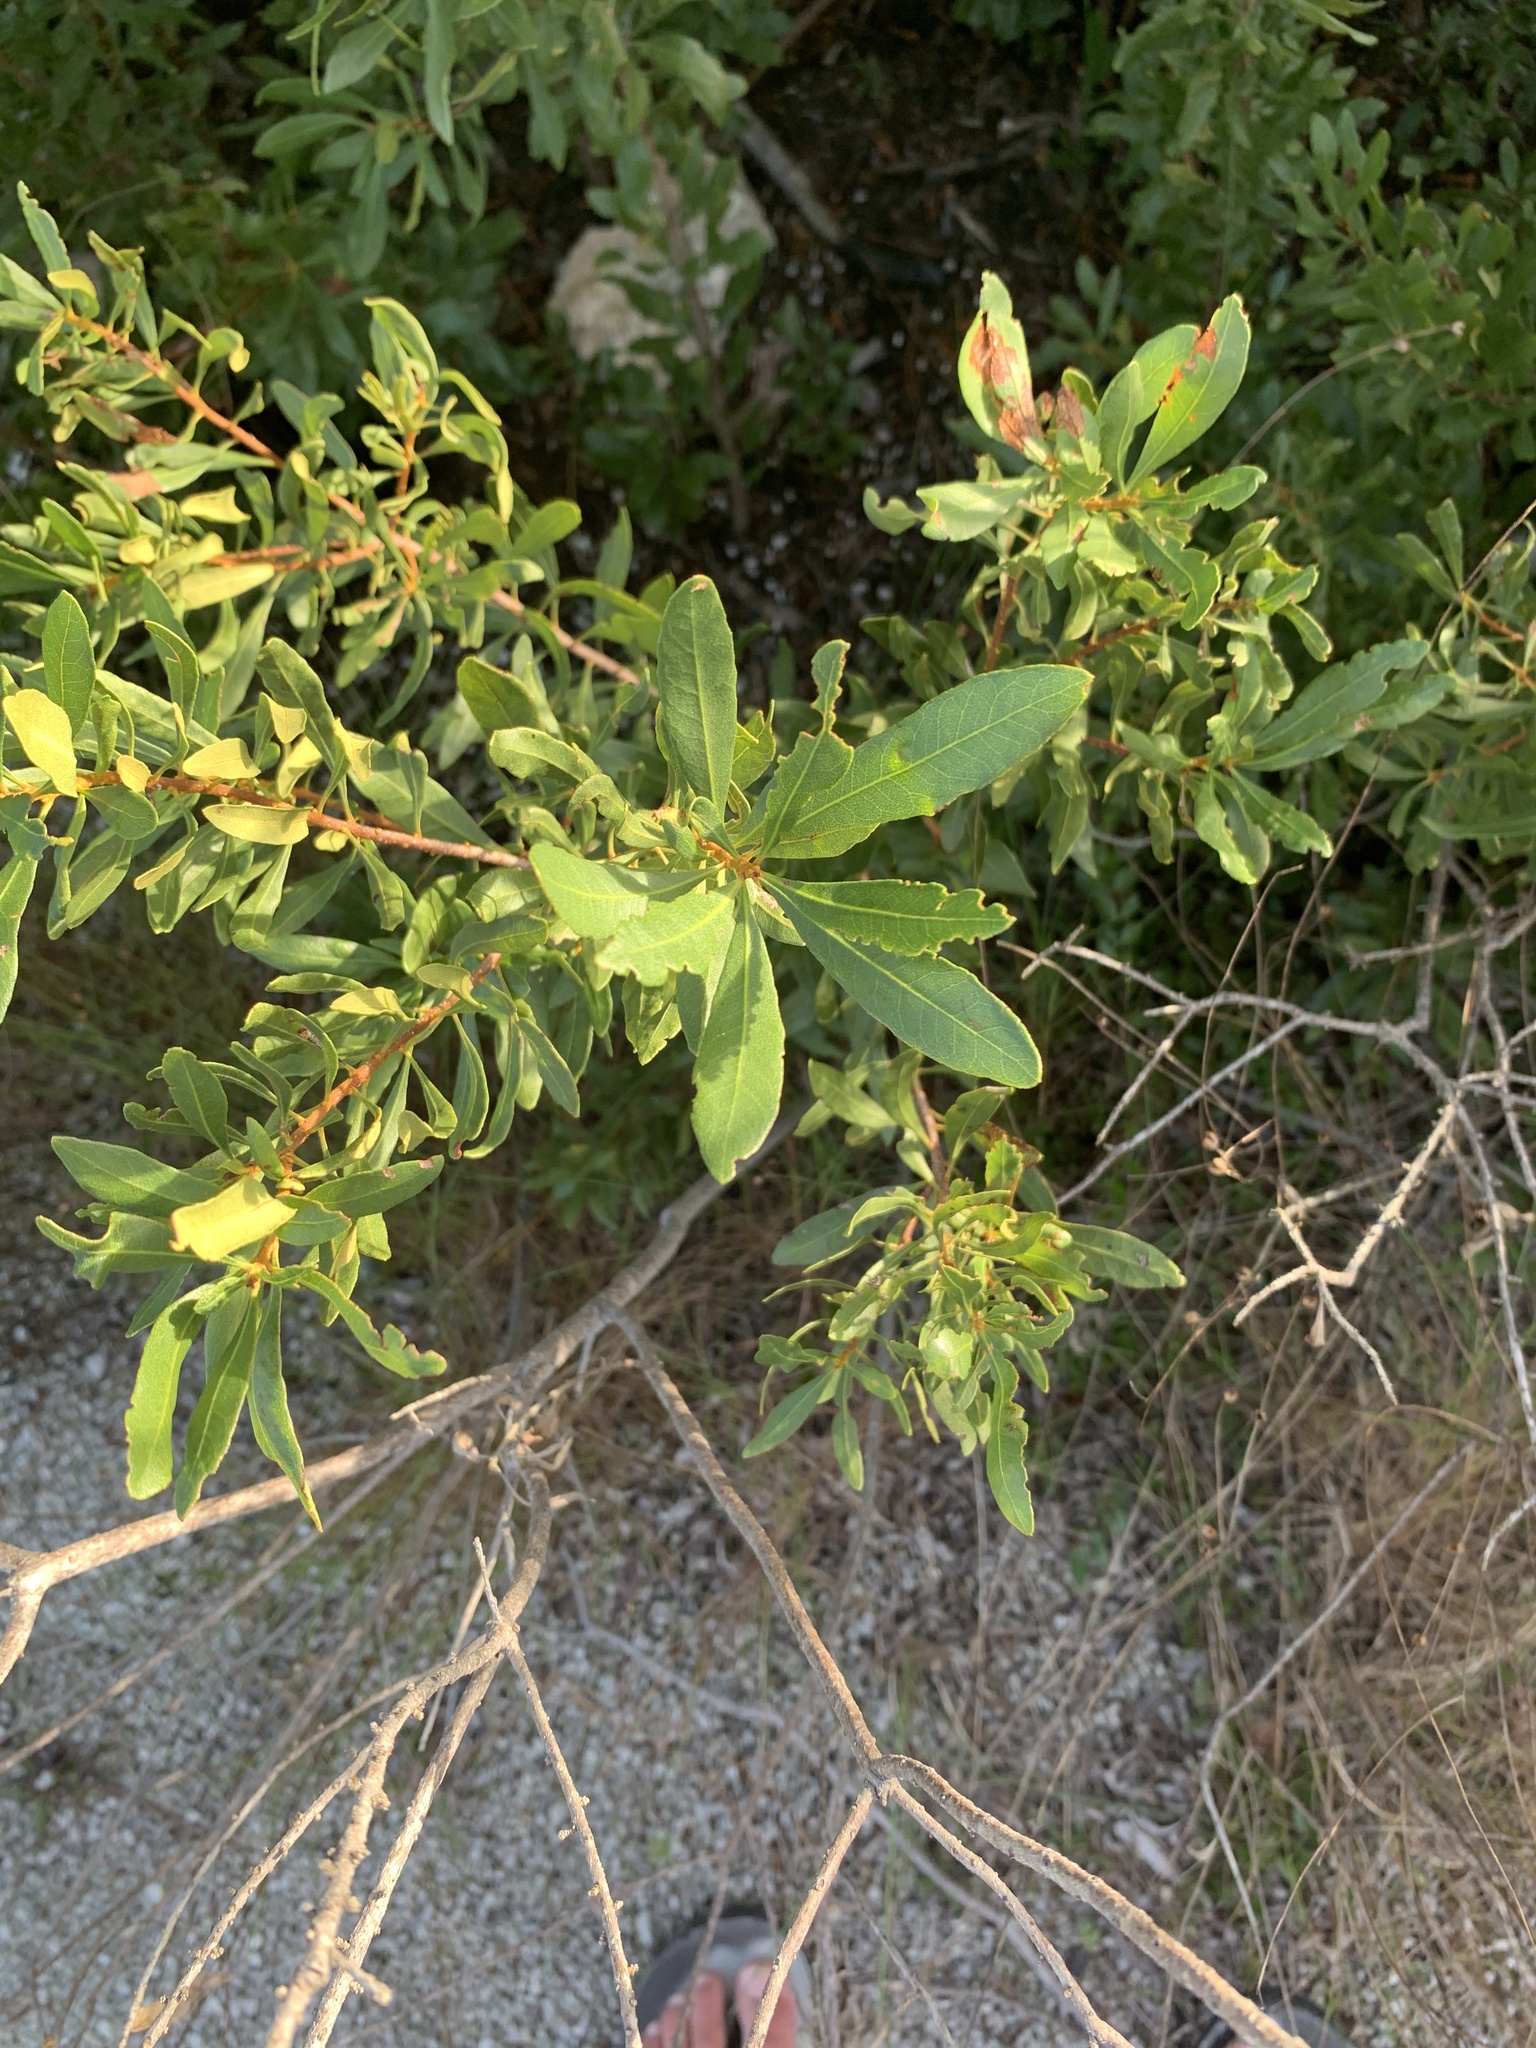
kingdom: Plantae
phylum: Tracheophyta
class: Magnoliopsida
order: Fagales
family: Myricaceae
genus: Morella
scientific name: Morella cerifera
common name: Wax myrtle
